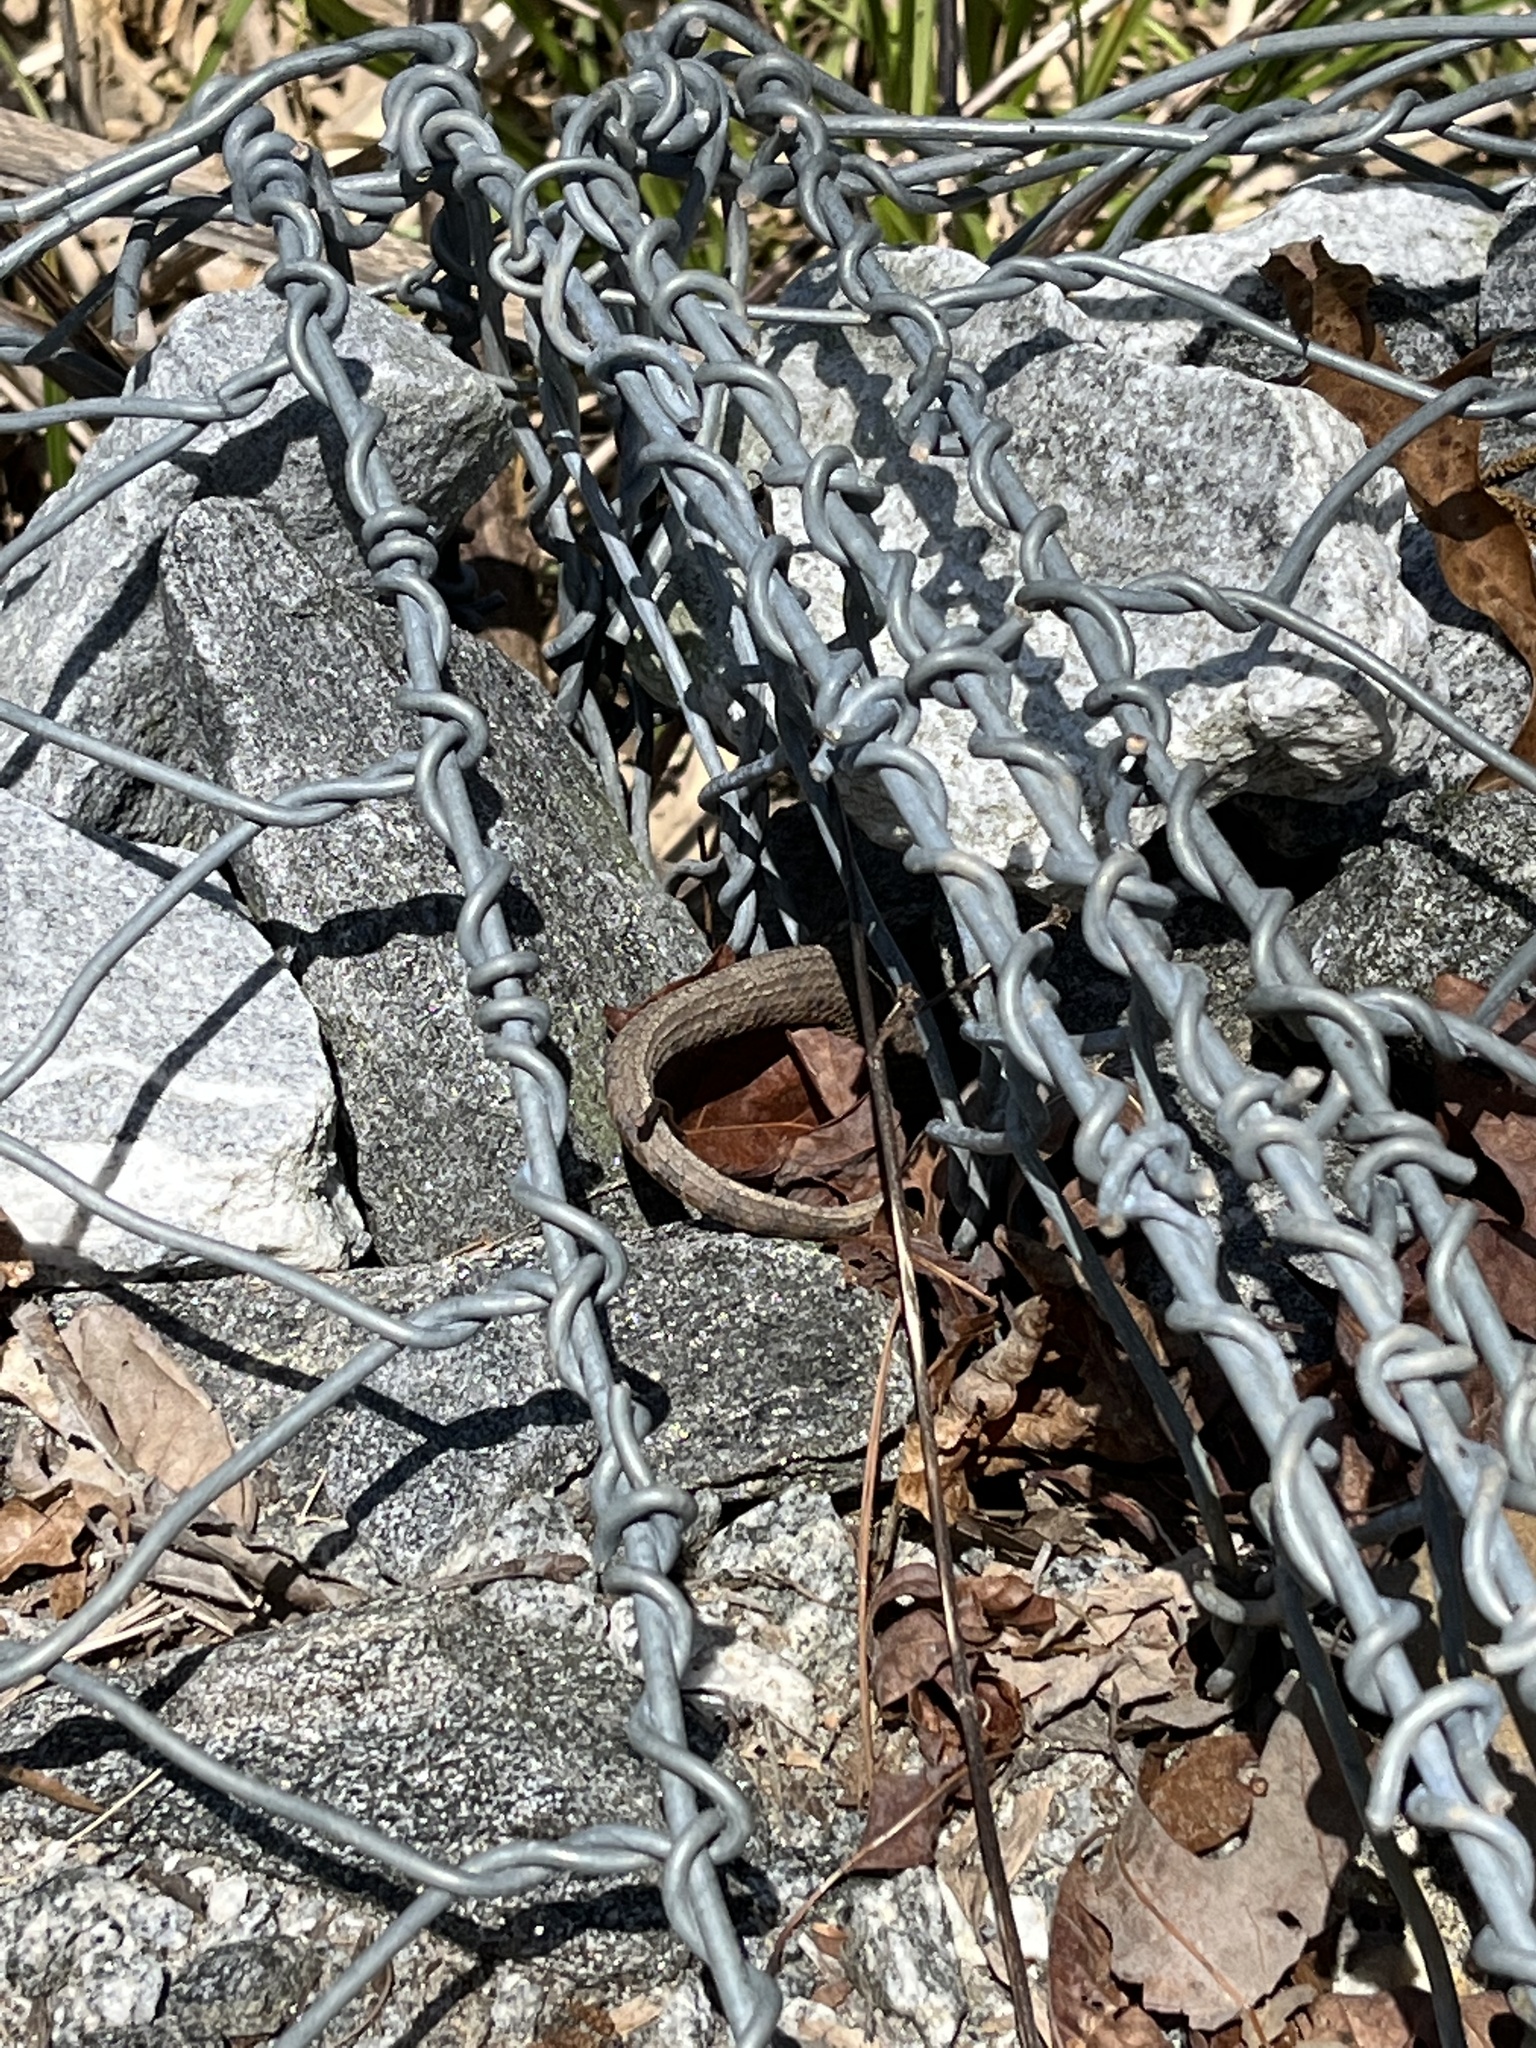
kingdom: Animalia
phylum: Chordata
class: Squamata
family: Colubridae
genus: Nerodia
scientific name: Nerodia sipedon
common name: Northern water snake
